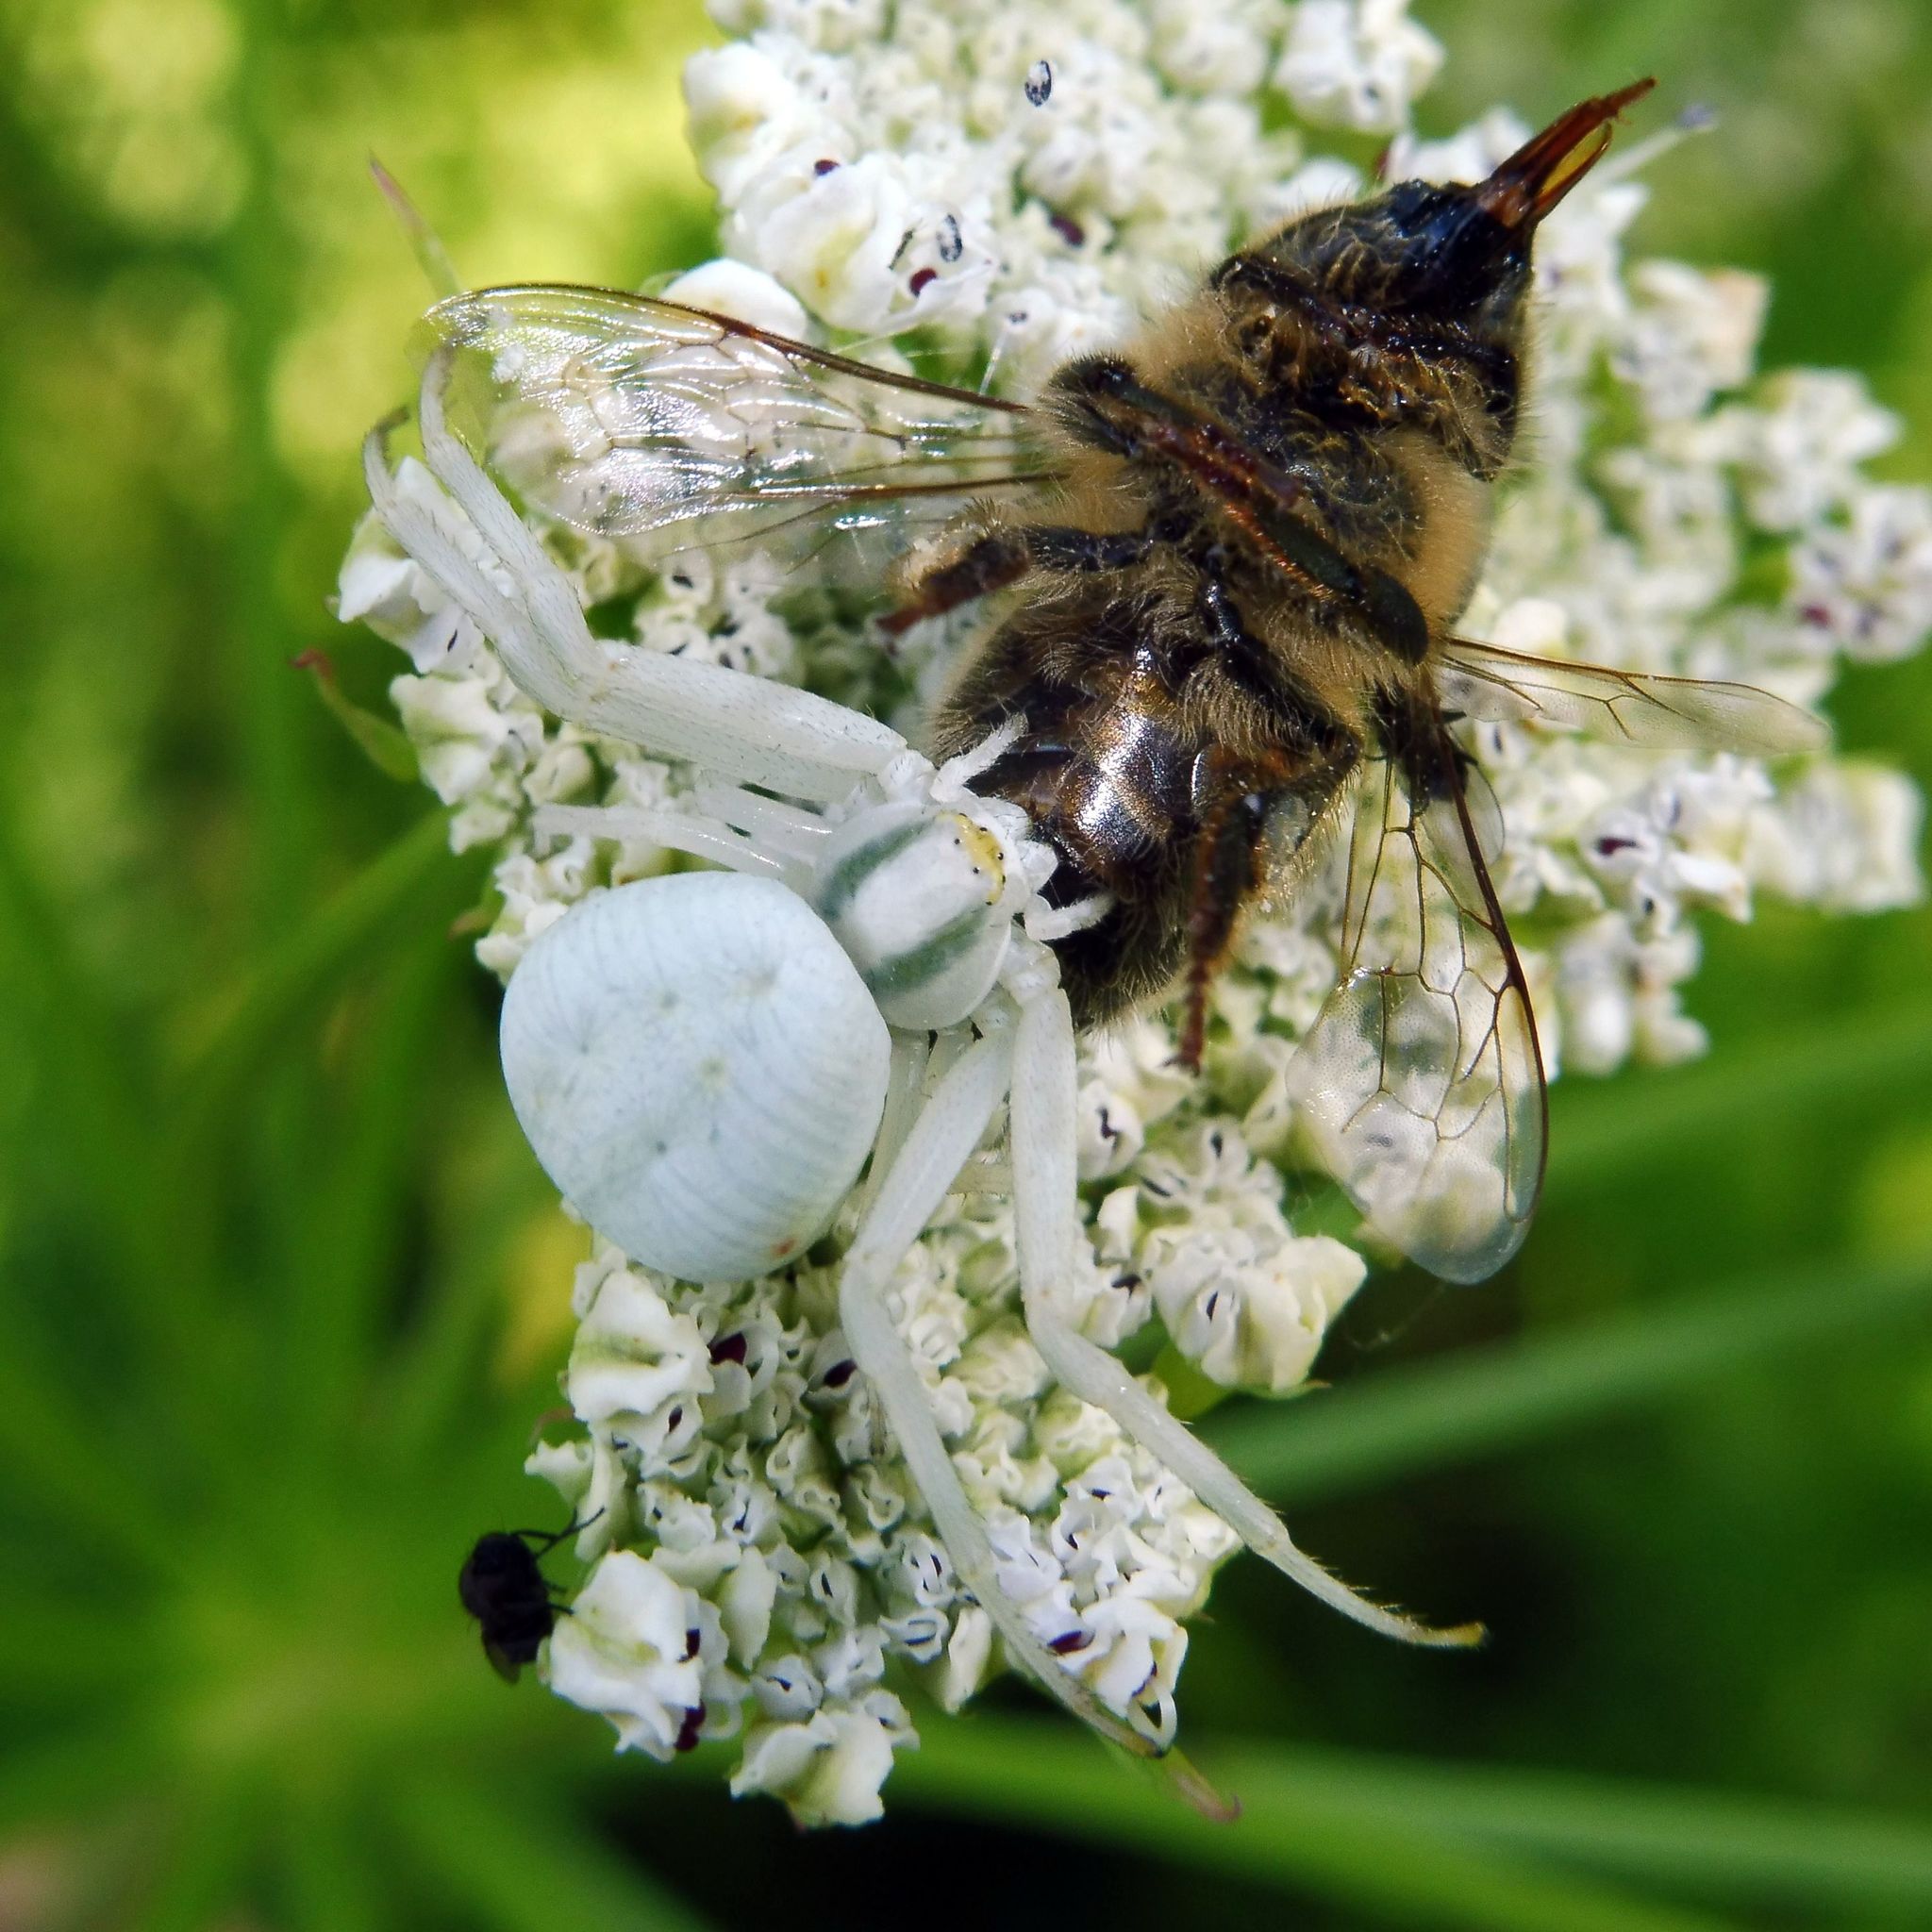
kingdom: Animalia
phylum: Arthropoda
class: Arachnida
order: Araneae
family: Thomisidae
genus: Misumena
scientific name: Misumena vatia
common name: Goldenrod crab spider
